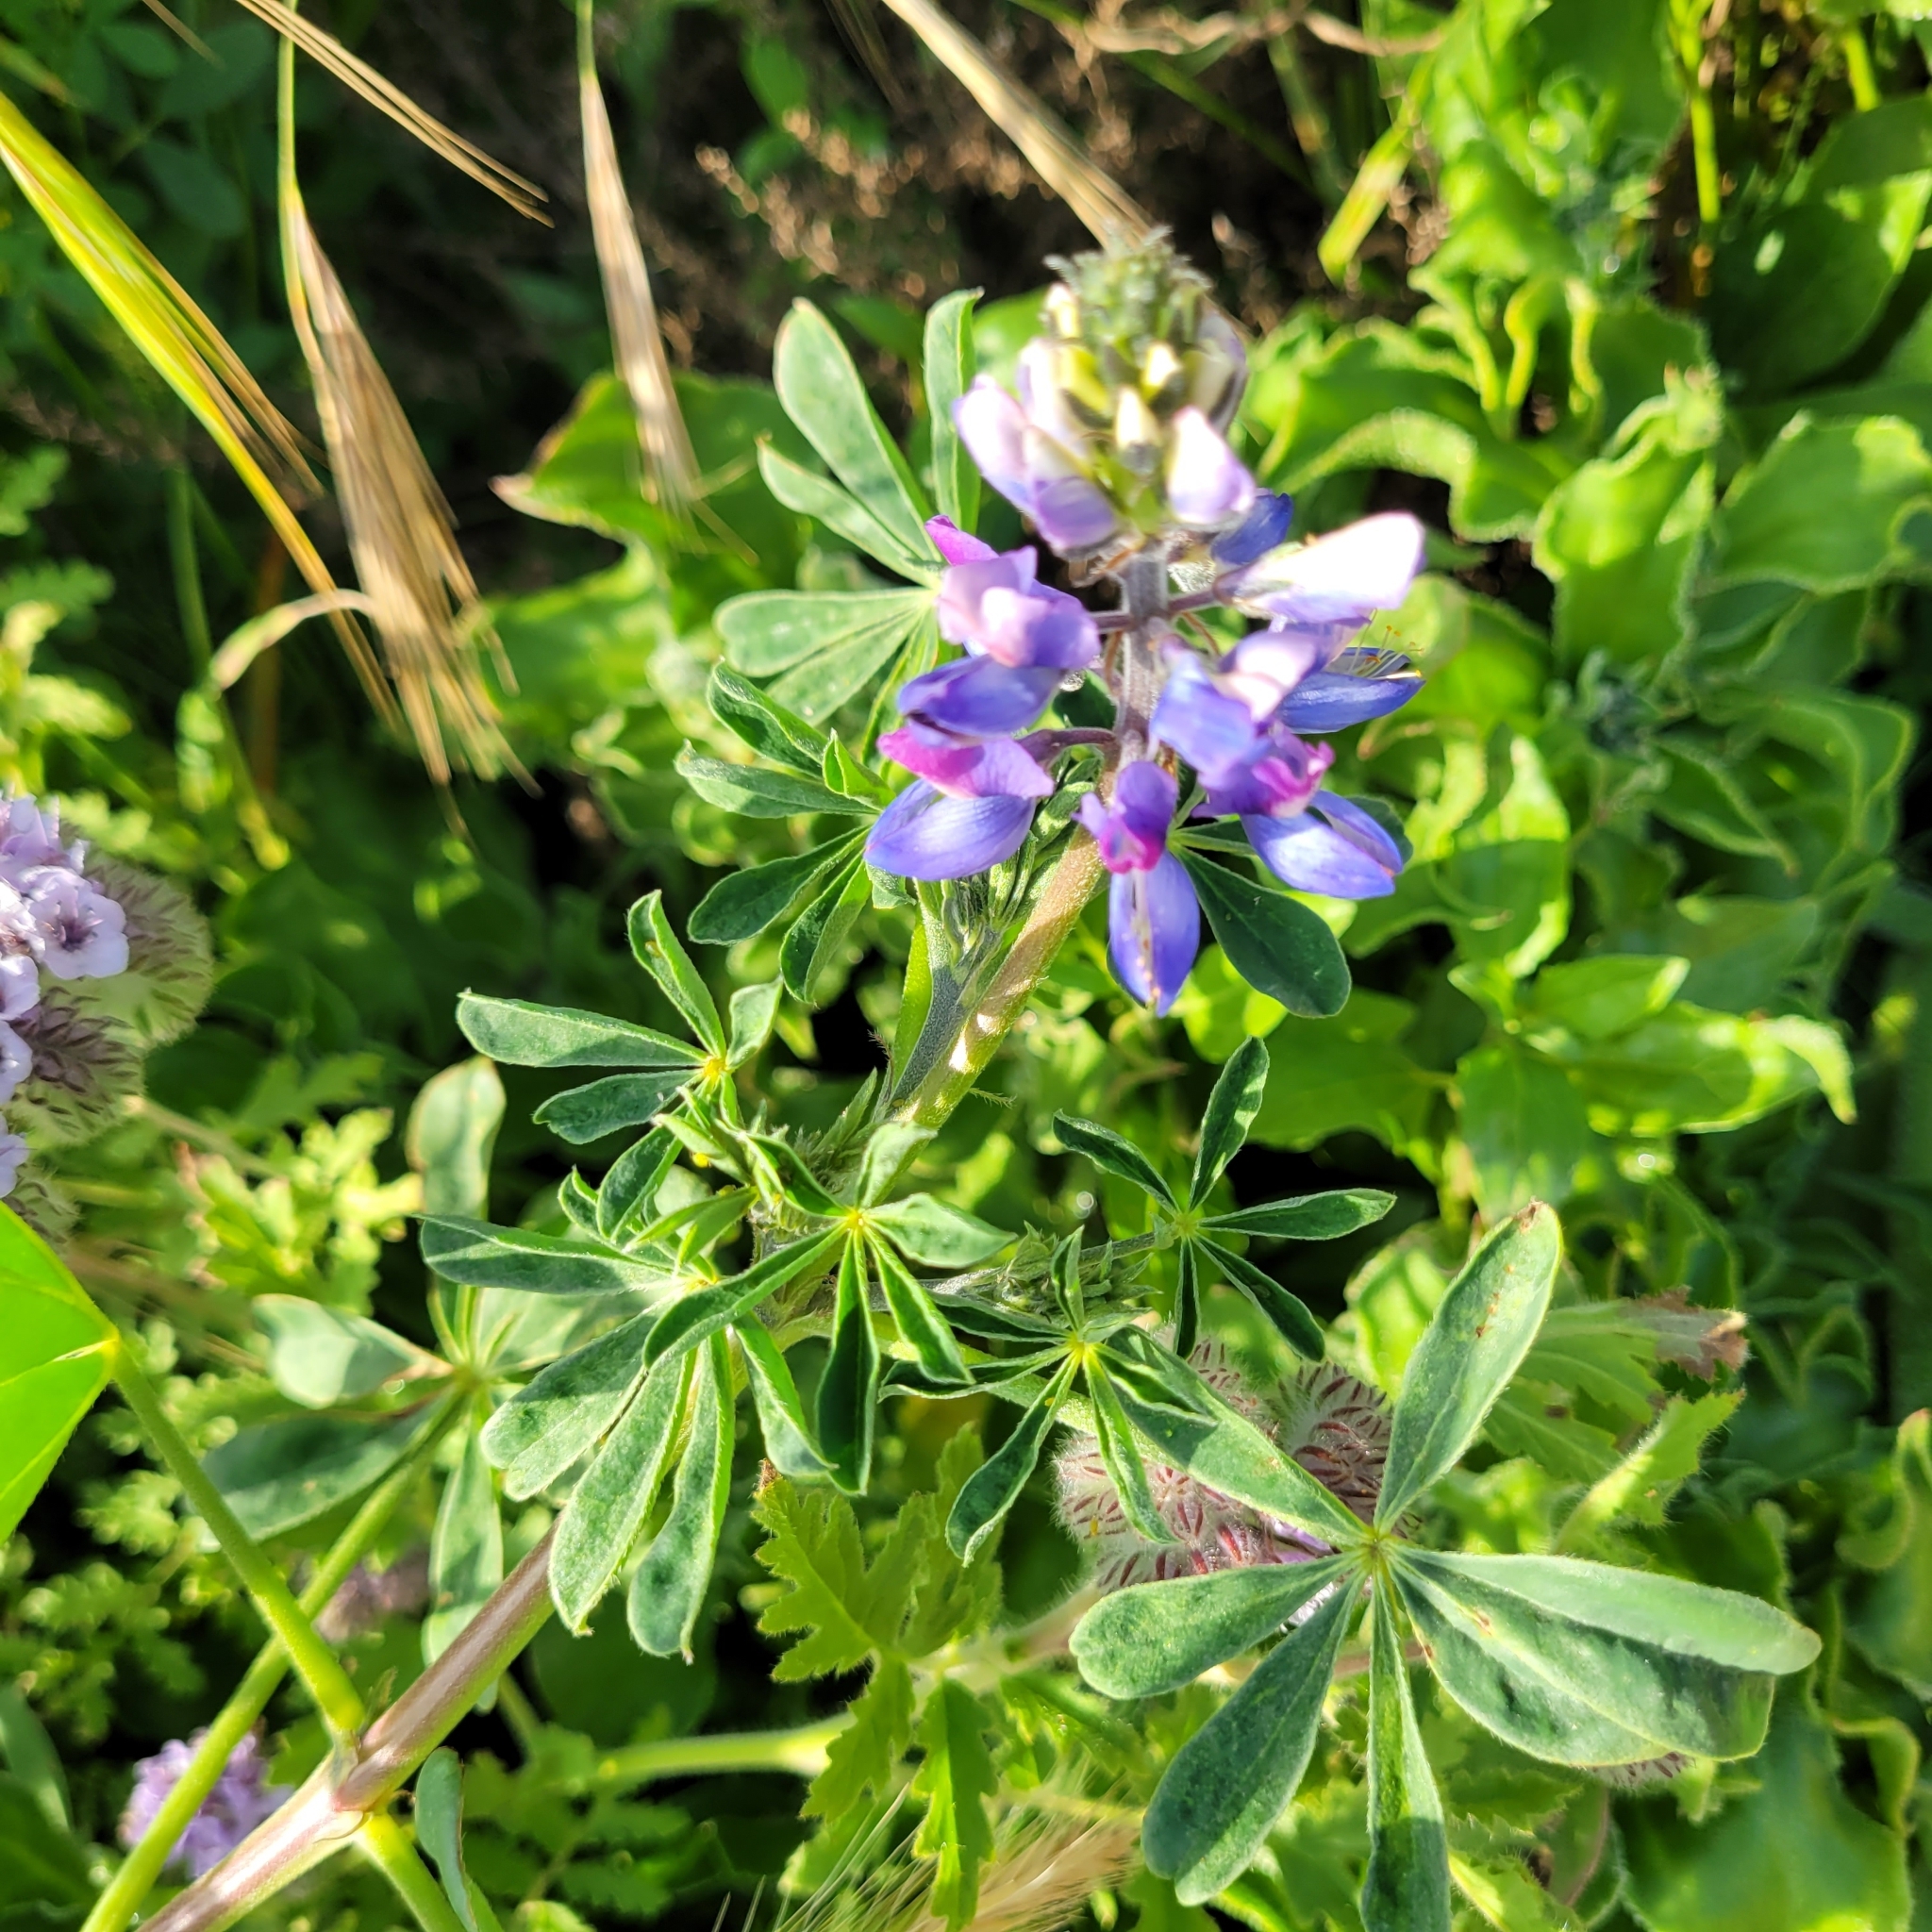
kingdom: Plantae
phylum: Tracheophyta
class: Magnoliopsida
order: Fabales
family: Fabaceae
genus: Lupinus
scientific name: Lupinus succulentus
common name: Arroyo lupine
